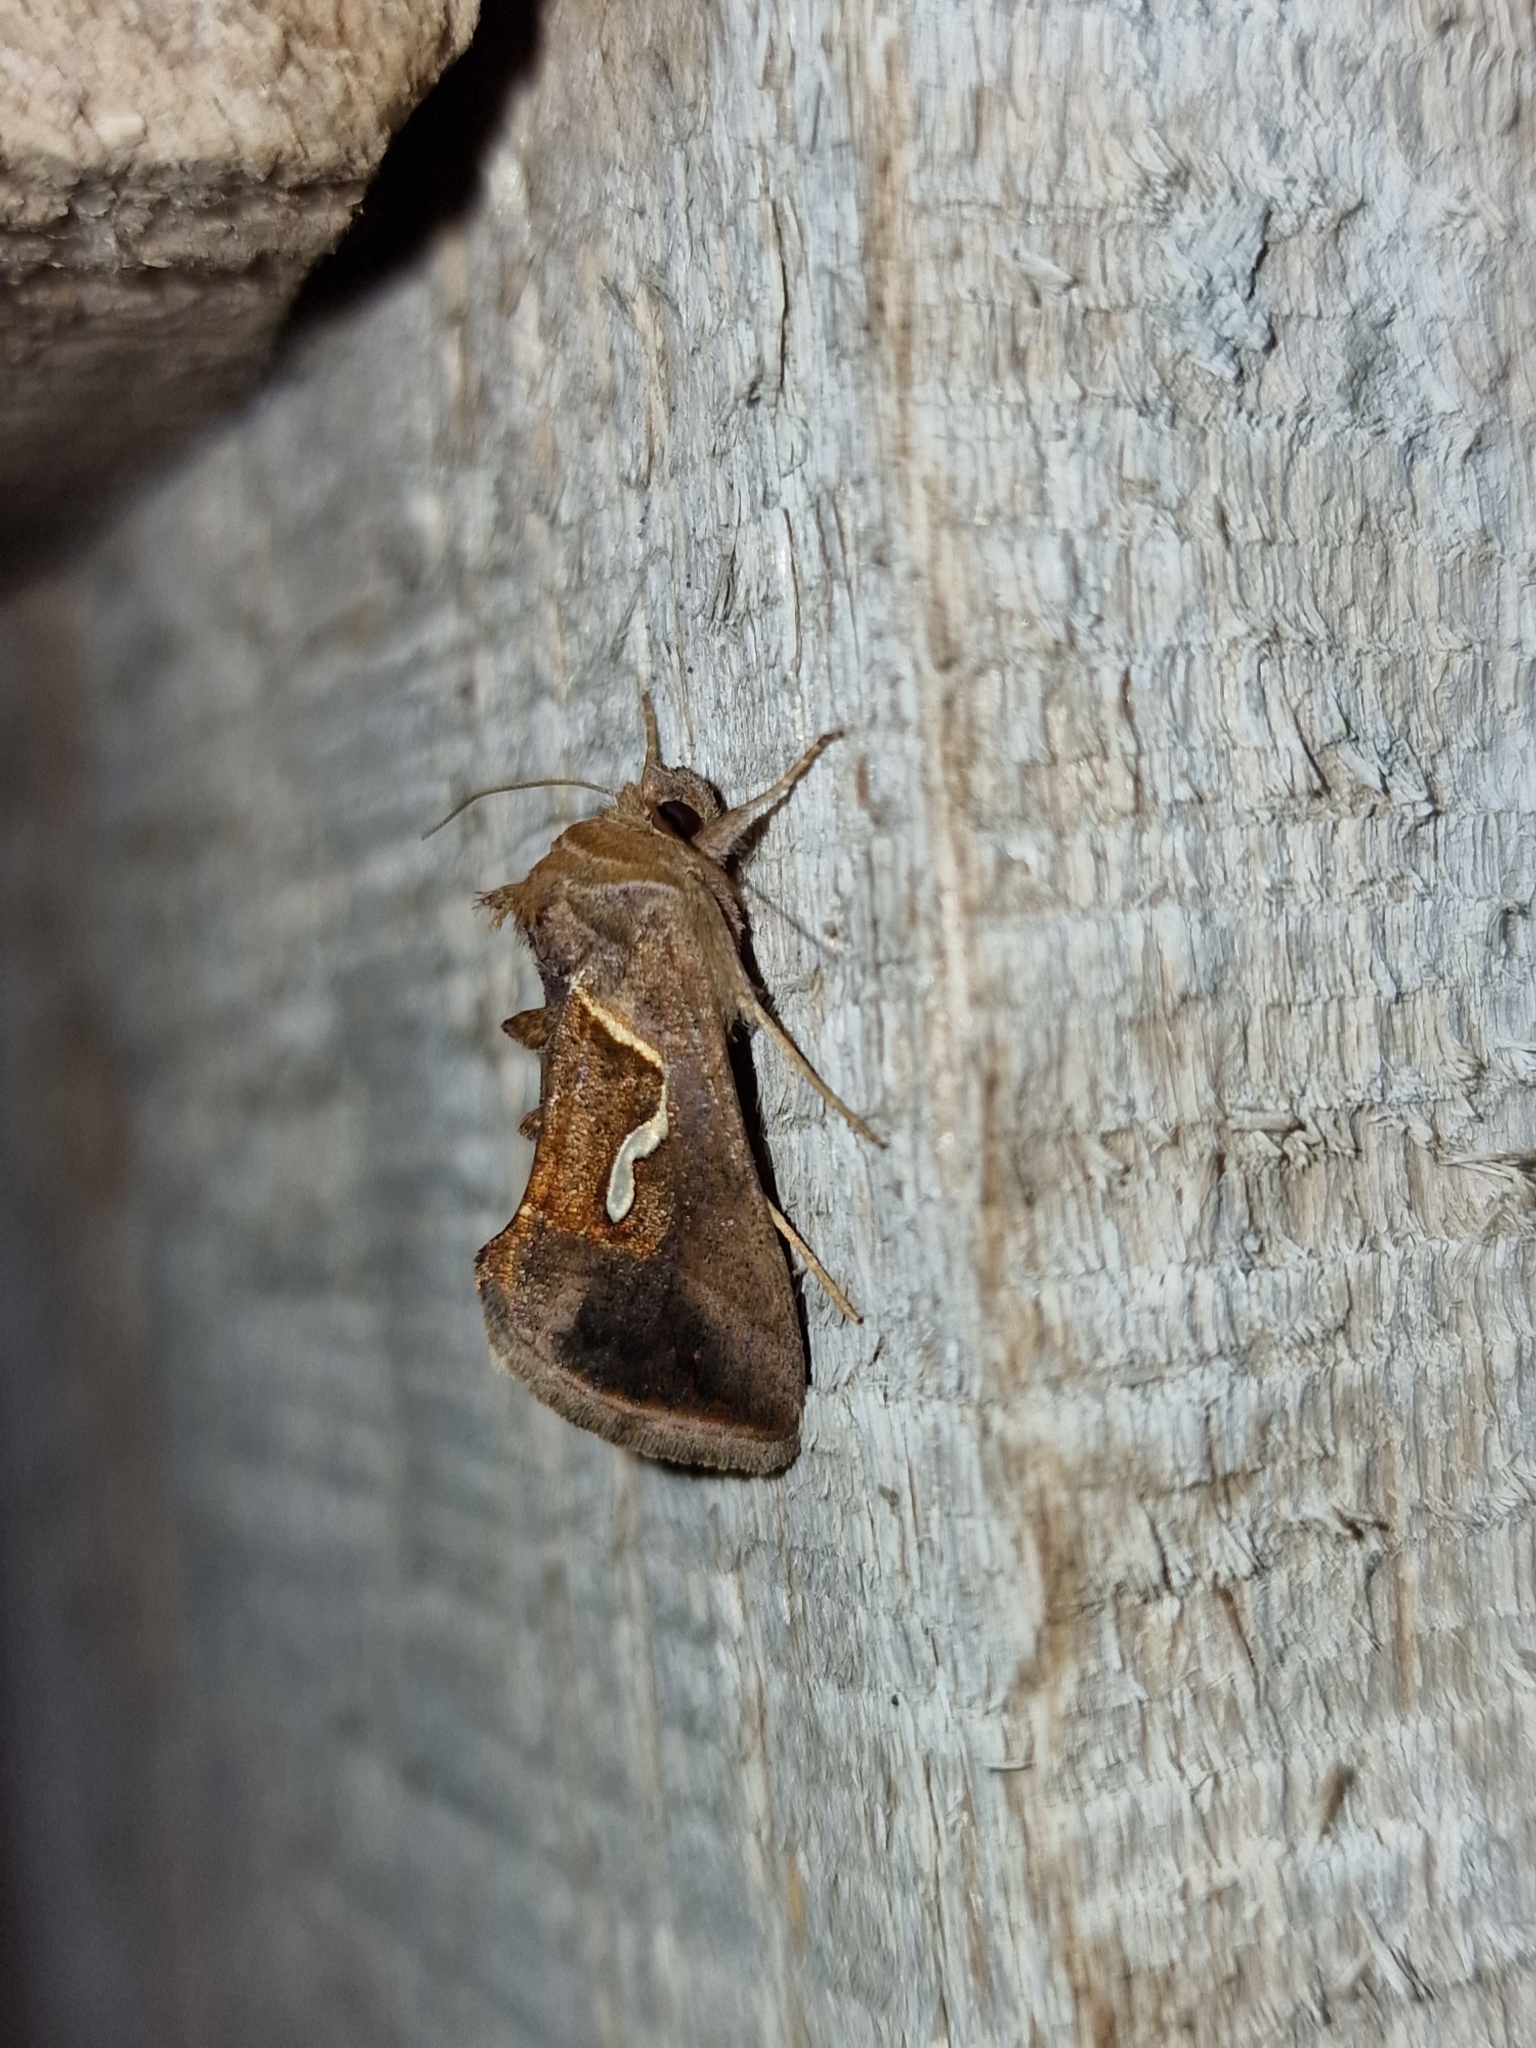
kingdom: Animalia
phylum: Arthropoda
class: Insecta
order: Lepidoptera
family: Noctuidae
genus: Macdunnoughia
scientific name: Macdunnoughia confusa
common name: Dewick's plusia
